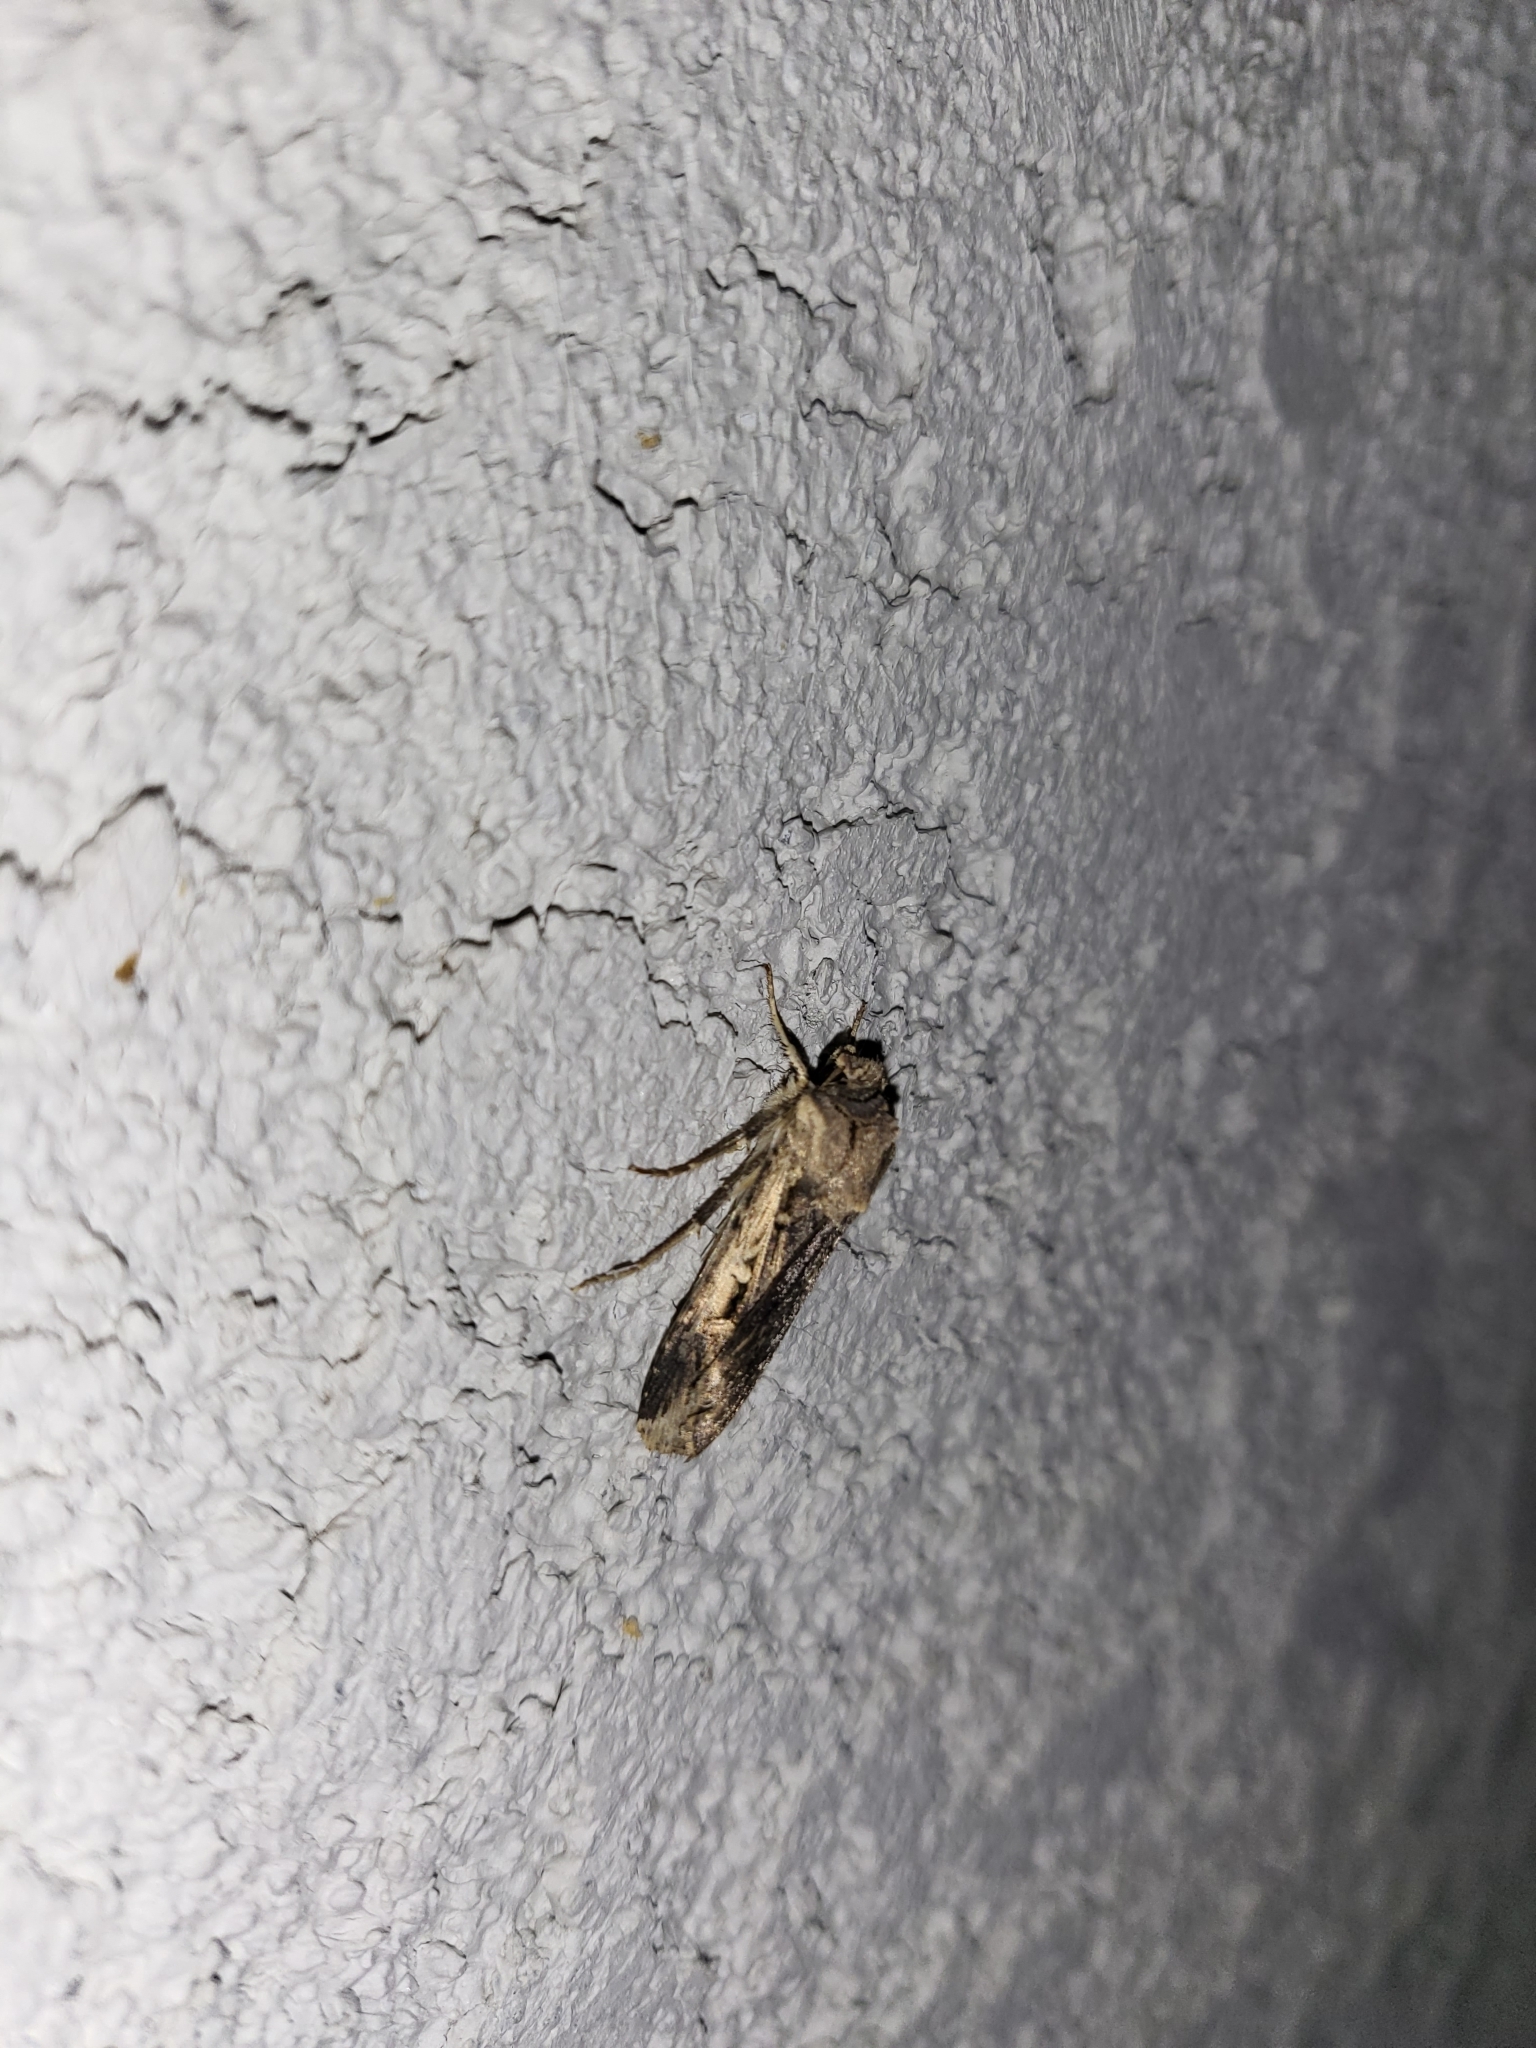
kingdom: Animalia
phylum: Arthropoda
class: Insecta
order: Lepidoptera
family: Noctuidae
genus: Feltia
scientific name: Feltia subterranea
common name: Granulate cutworm
